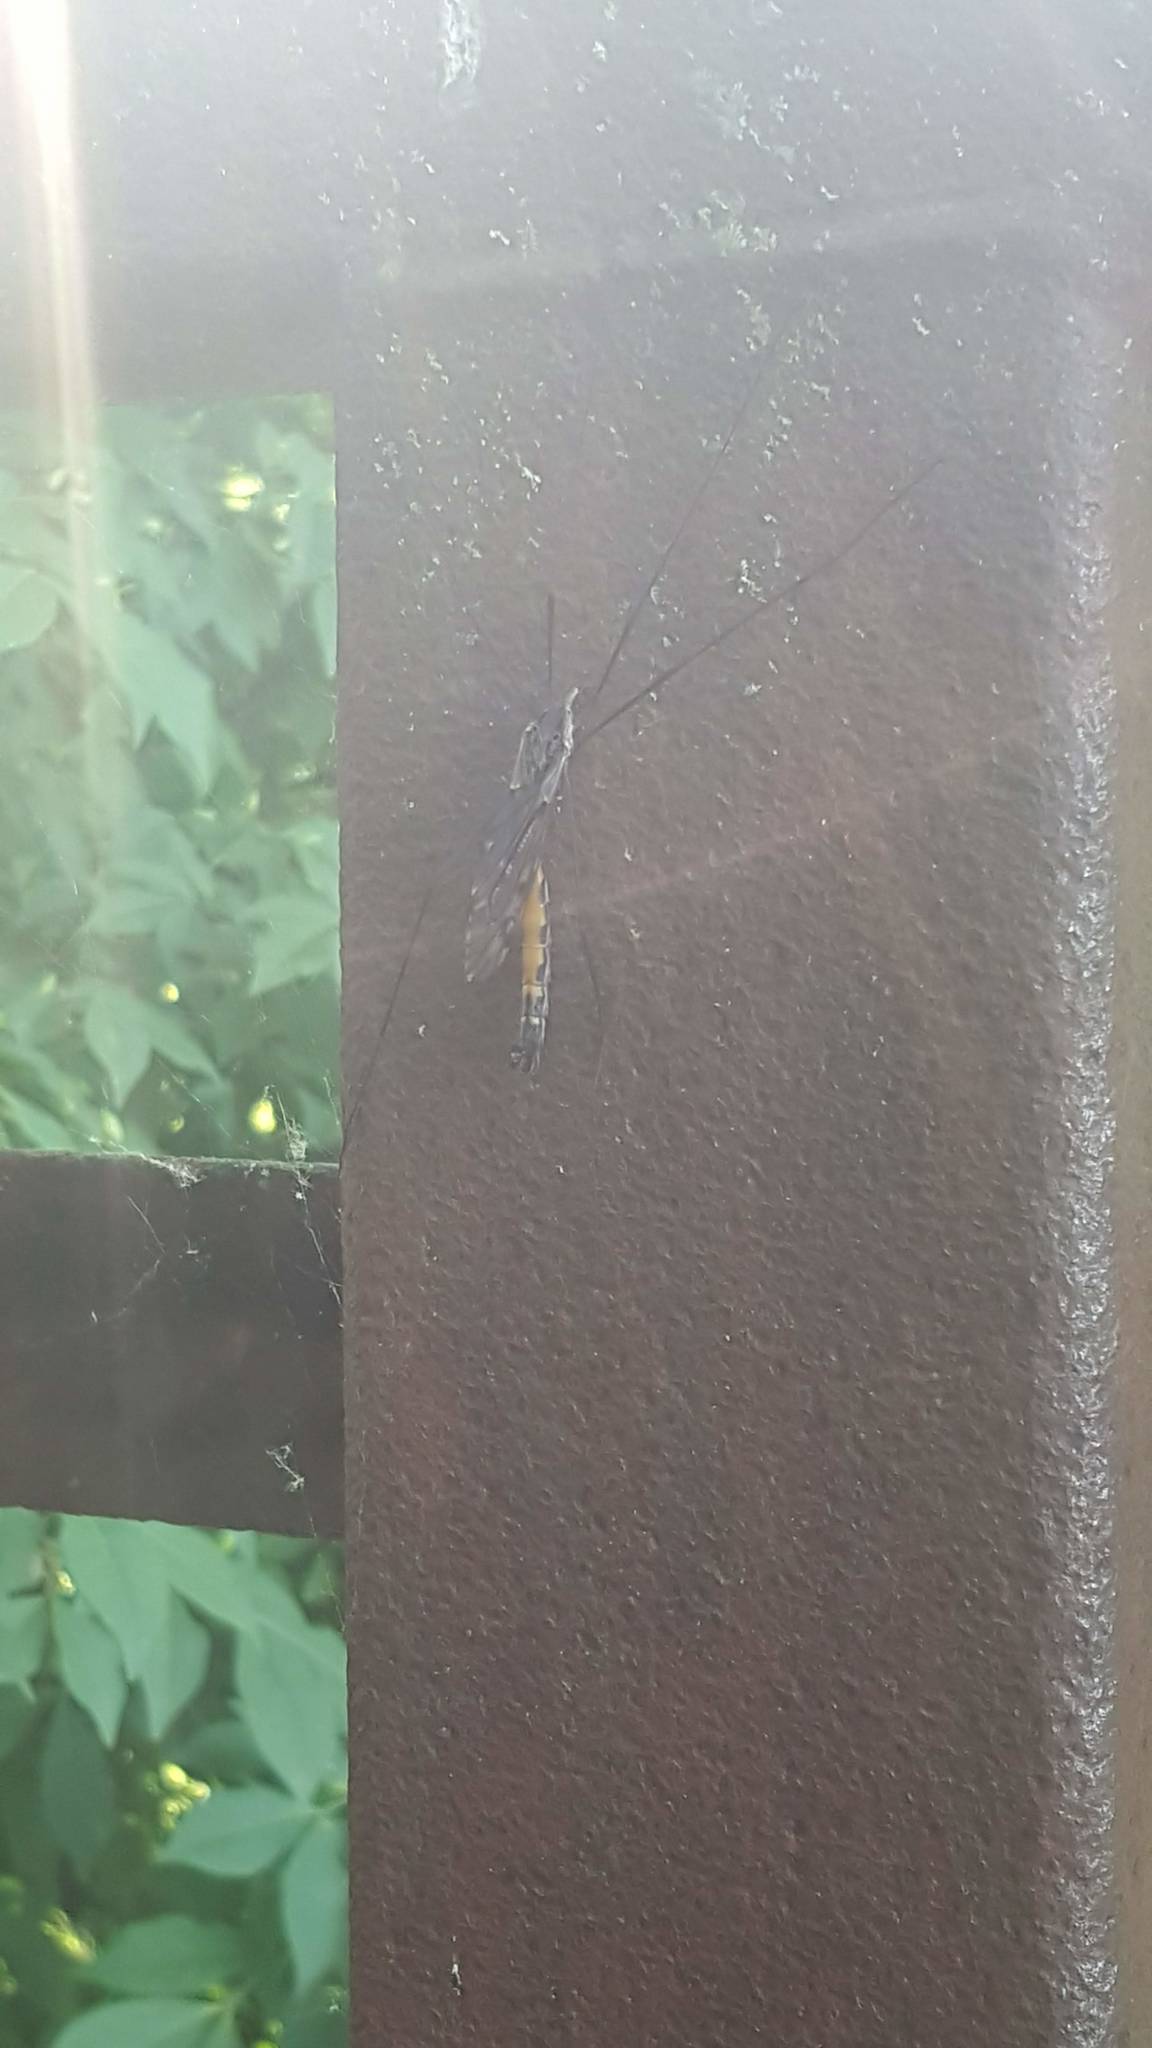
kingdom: Animalia
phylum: Arthropoda
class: Insecta
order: Diptera
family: Tipulidae
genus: Tipula
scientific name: Tipula metacomet
